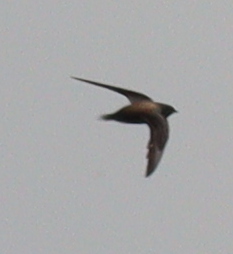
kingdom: Animalia
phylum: Chordata
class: Aves
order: Apodiformes
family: Apodidae
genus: Hirundapus
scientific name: Hirundapus giganteus
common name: Brown-backed needletail
